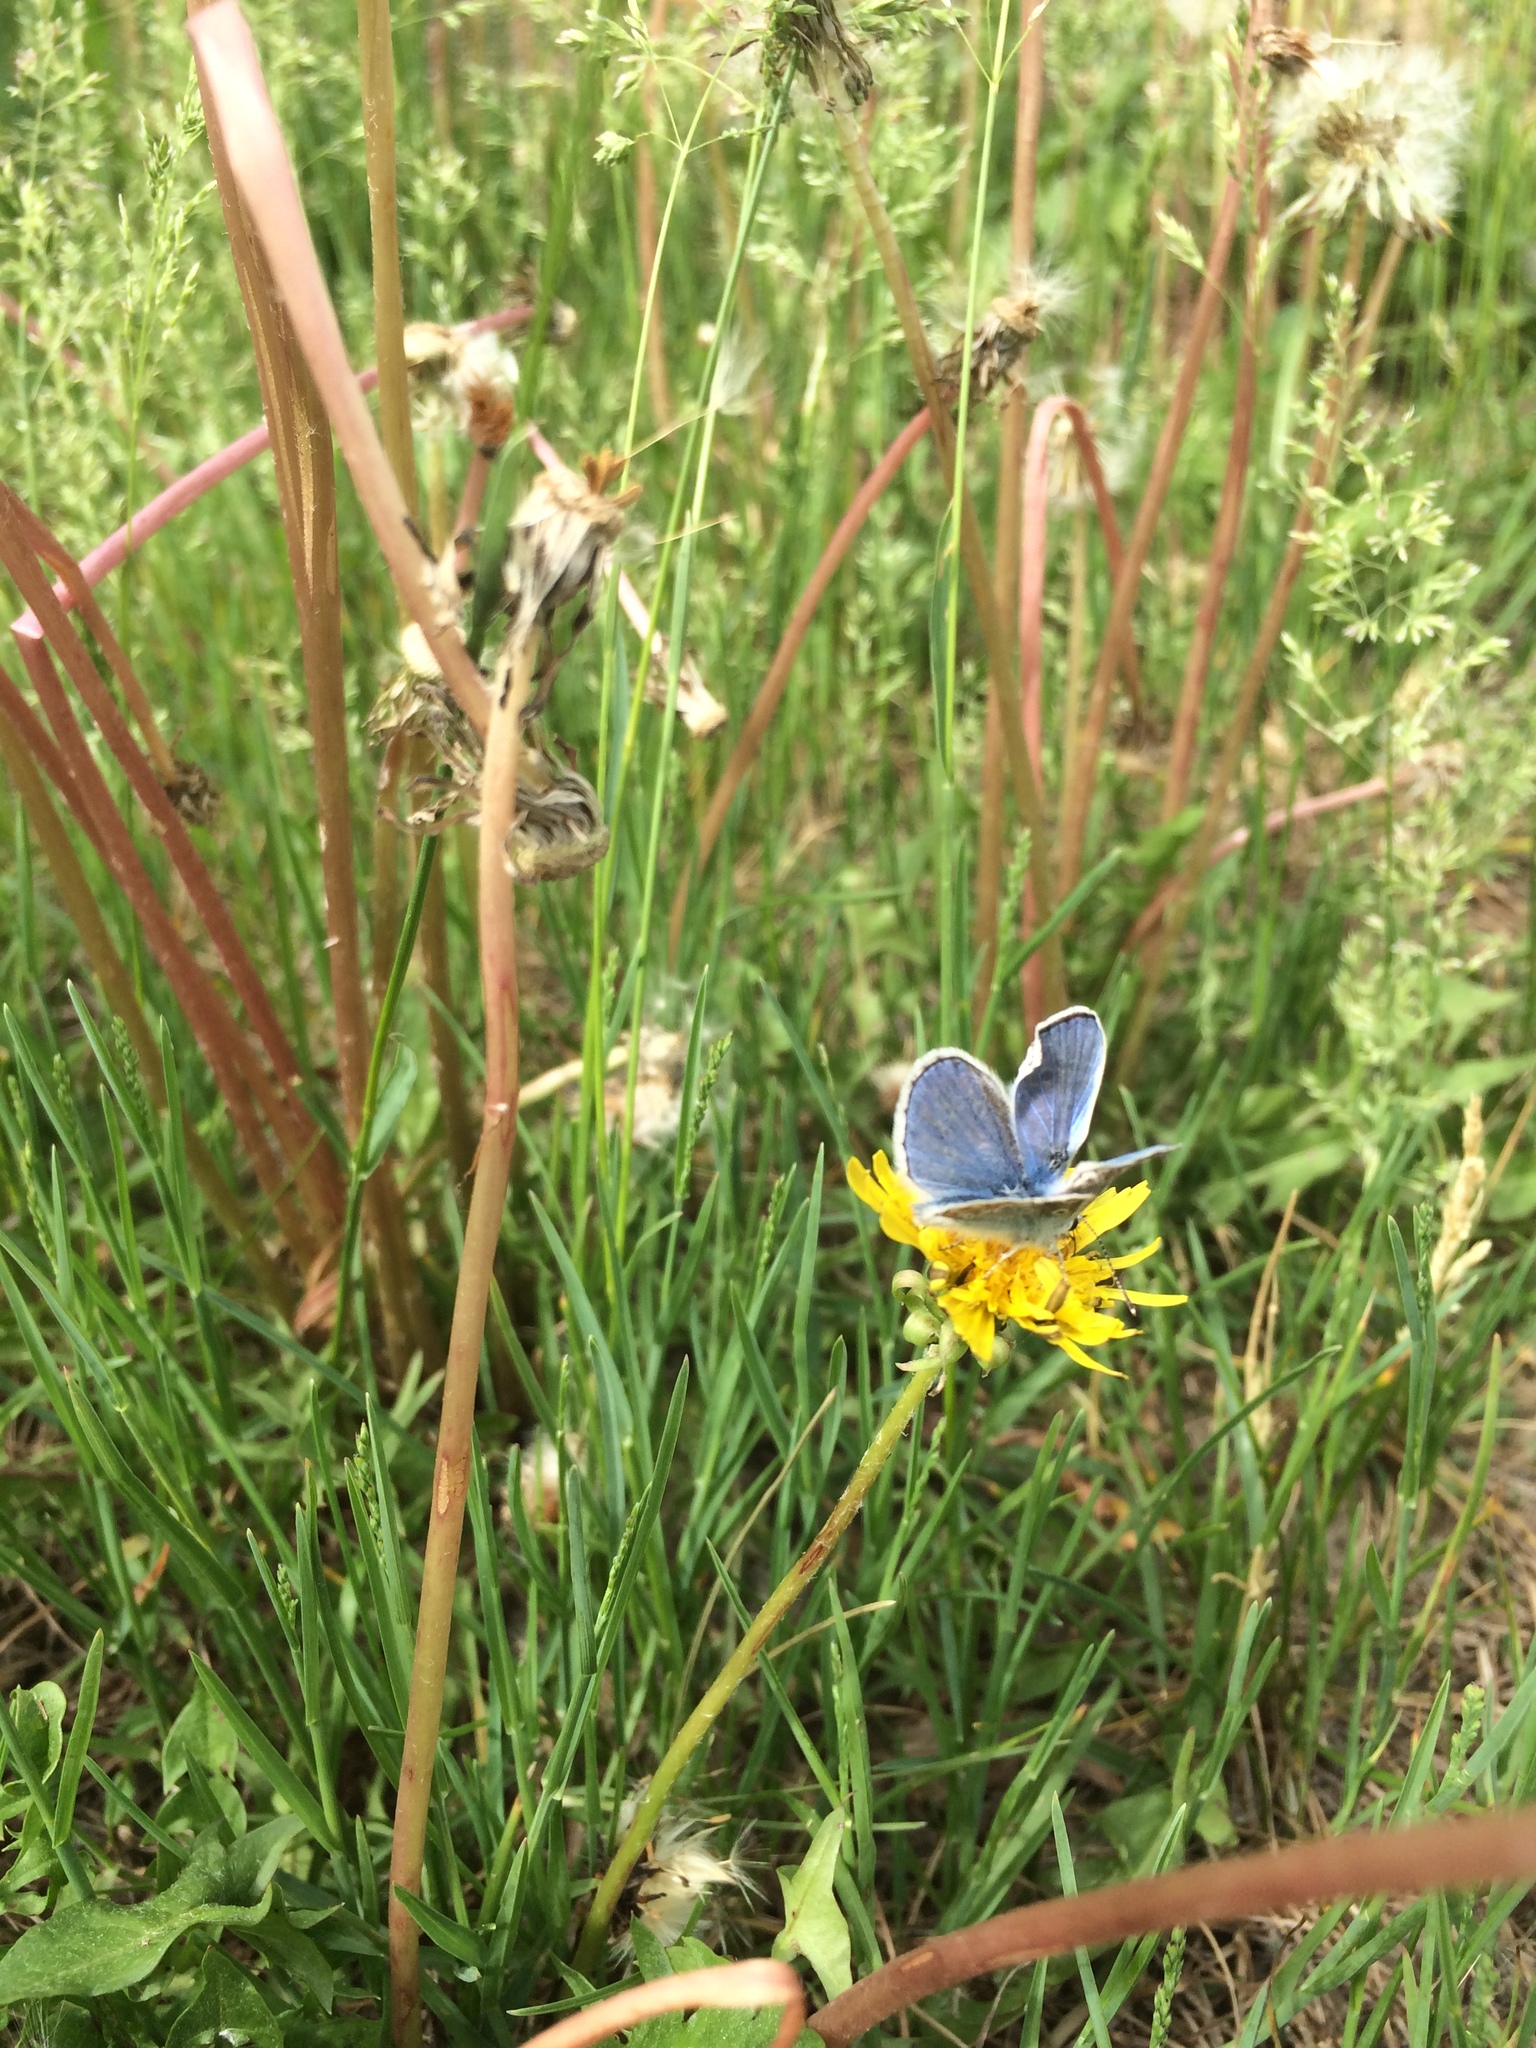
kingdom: Animalia
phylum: Arthropoda
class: Insecta
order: Lepidoptera
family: Lycaenidae
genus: Polyommatus
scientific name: Polyommatus icarus
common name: Common blue
